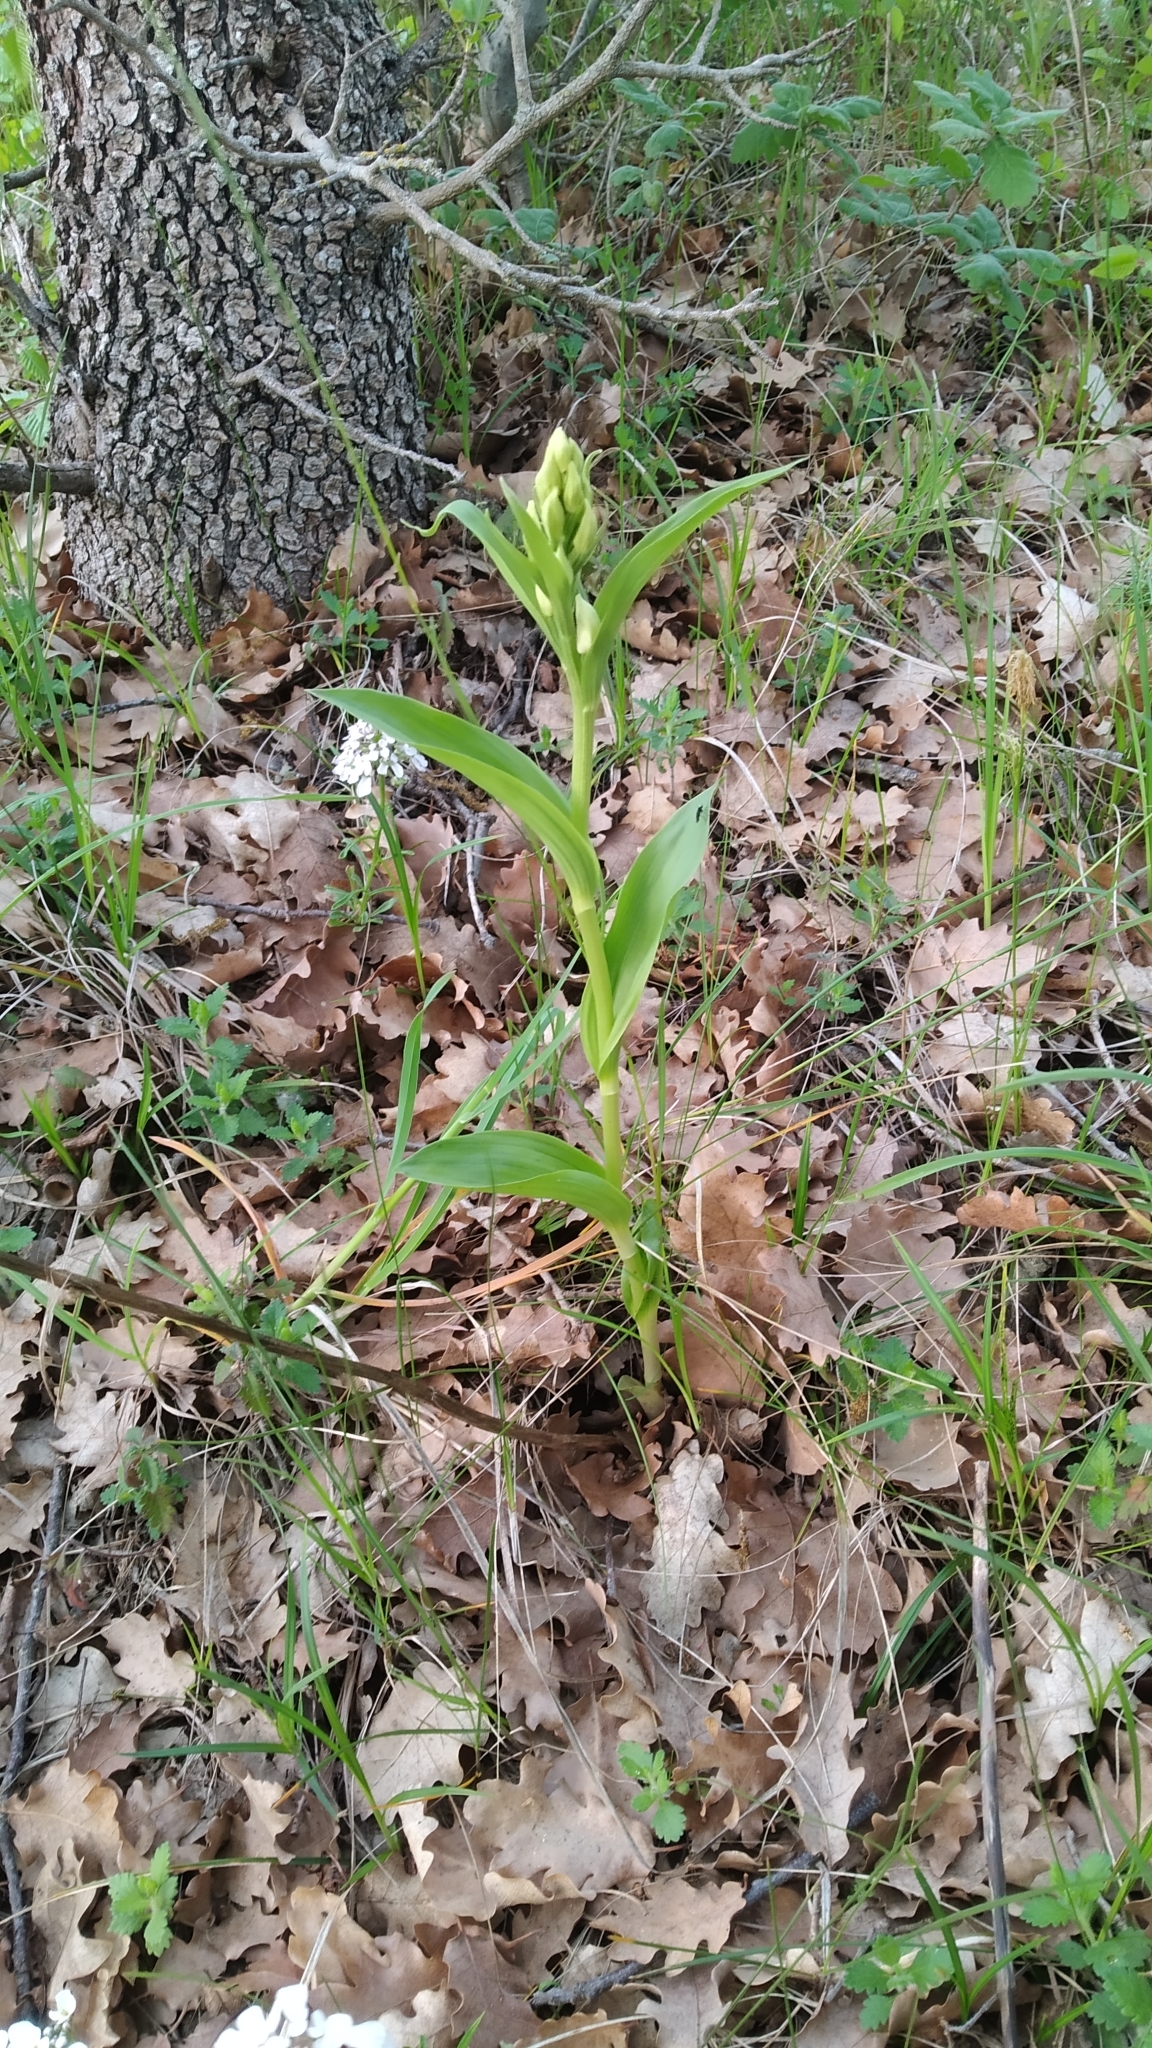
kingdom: Plantae
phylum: Tracheophyta
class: Liliopsida
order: Asparagales
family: Orchidaceae
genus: Cephalanthera
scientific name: Cephalanthera damasonium
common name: White helleborine
